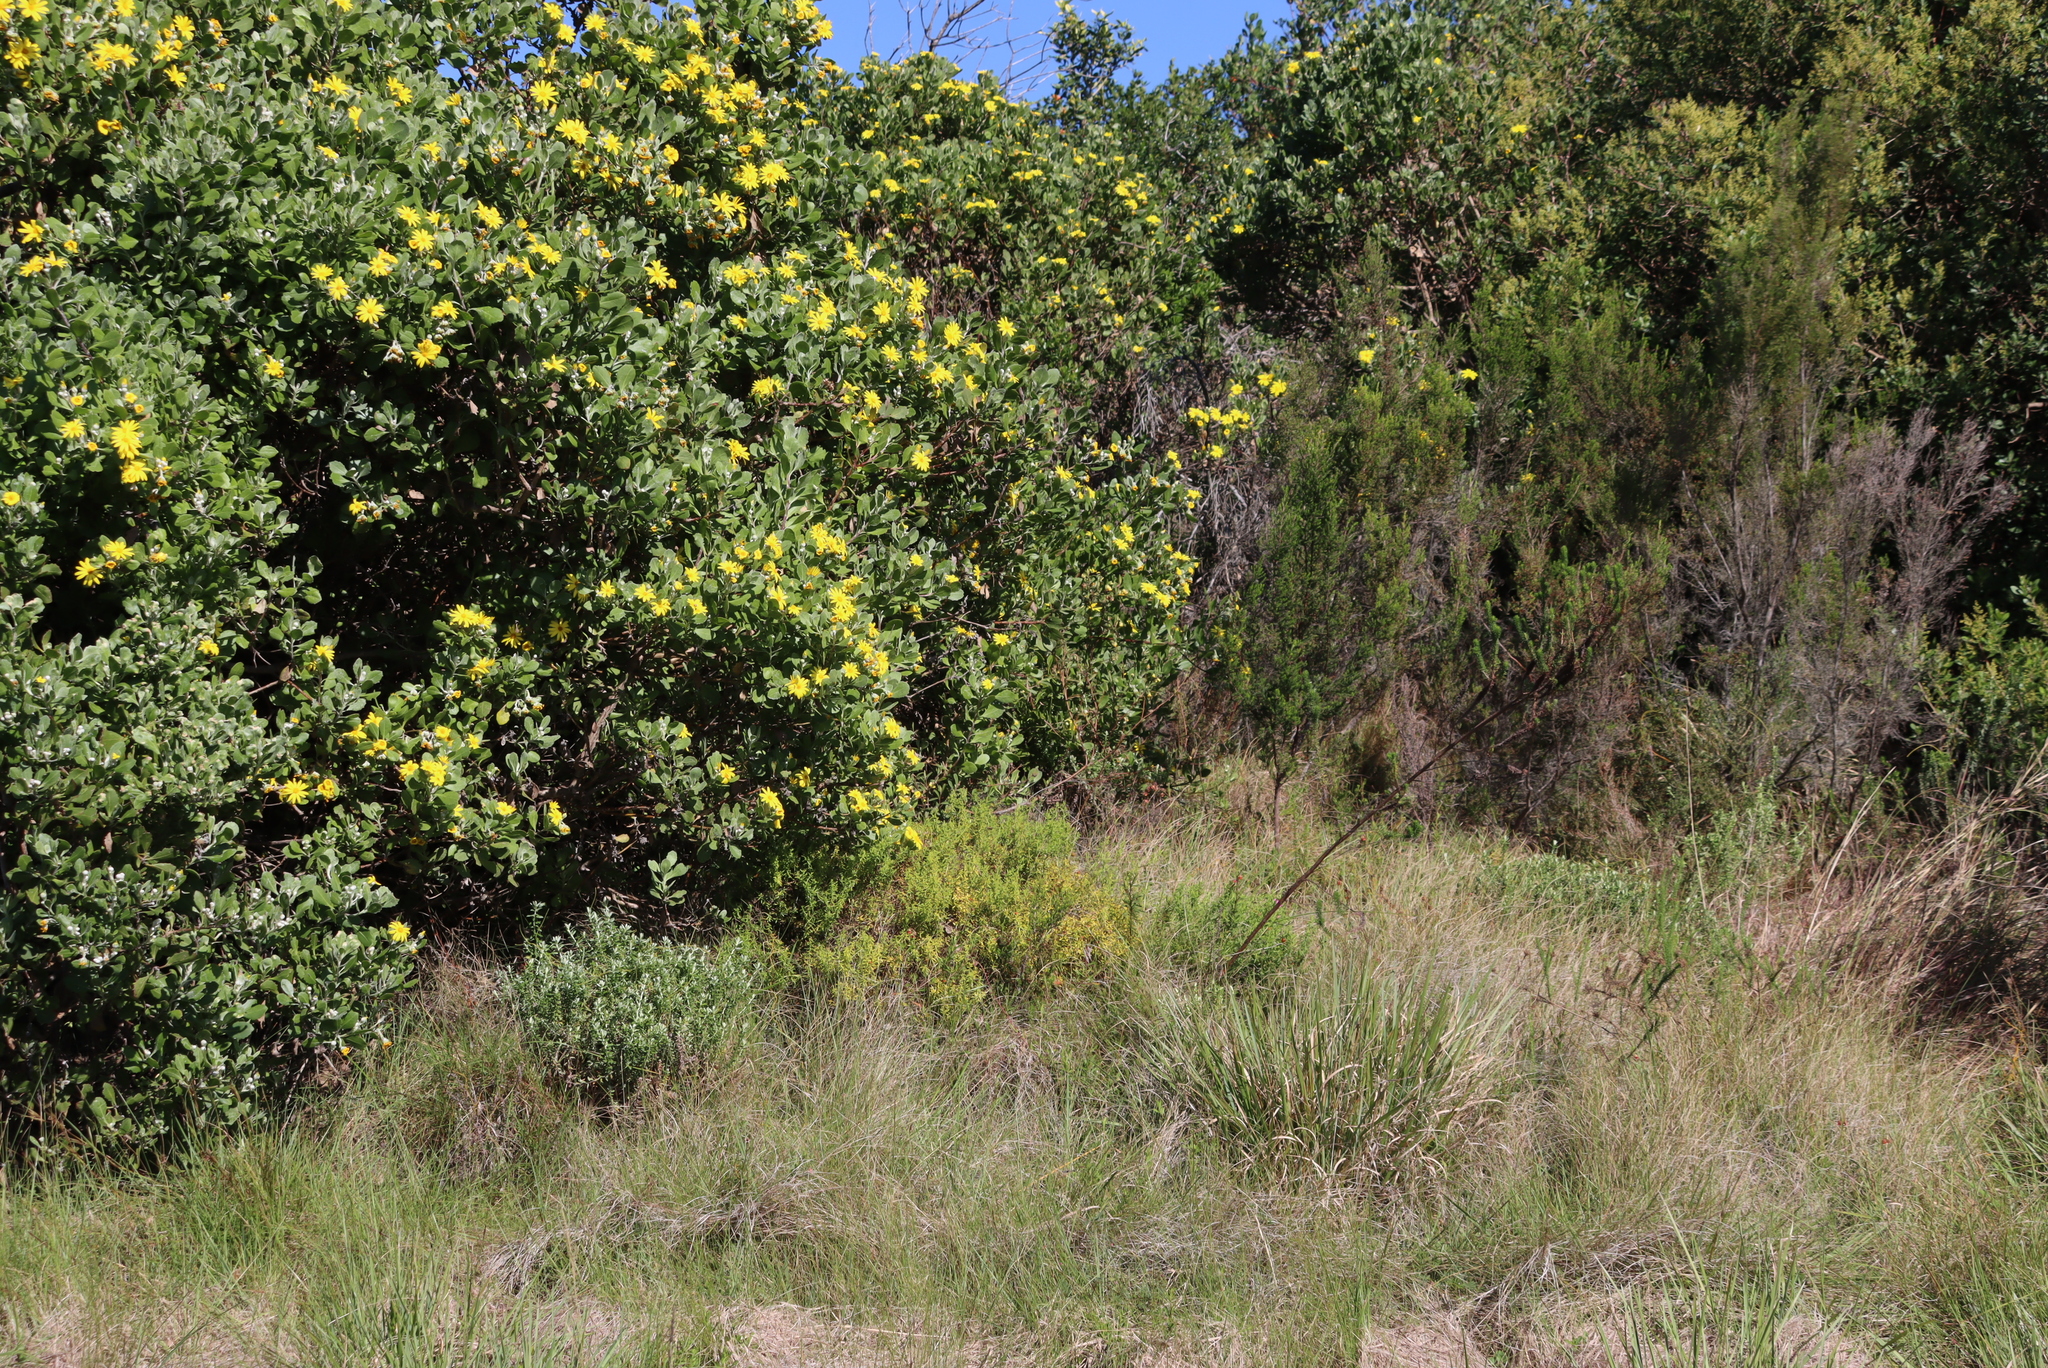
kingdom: Plantae
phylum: Tracheophyta
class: Magnoliopsida
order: Asterales
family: Asteraceae
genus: Osteospermum
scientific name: Osteospermum moniliferum
